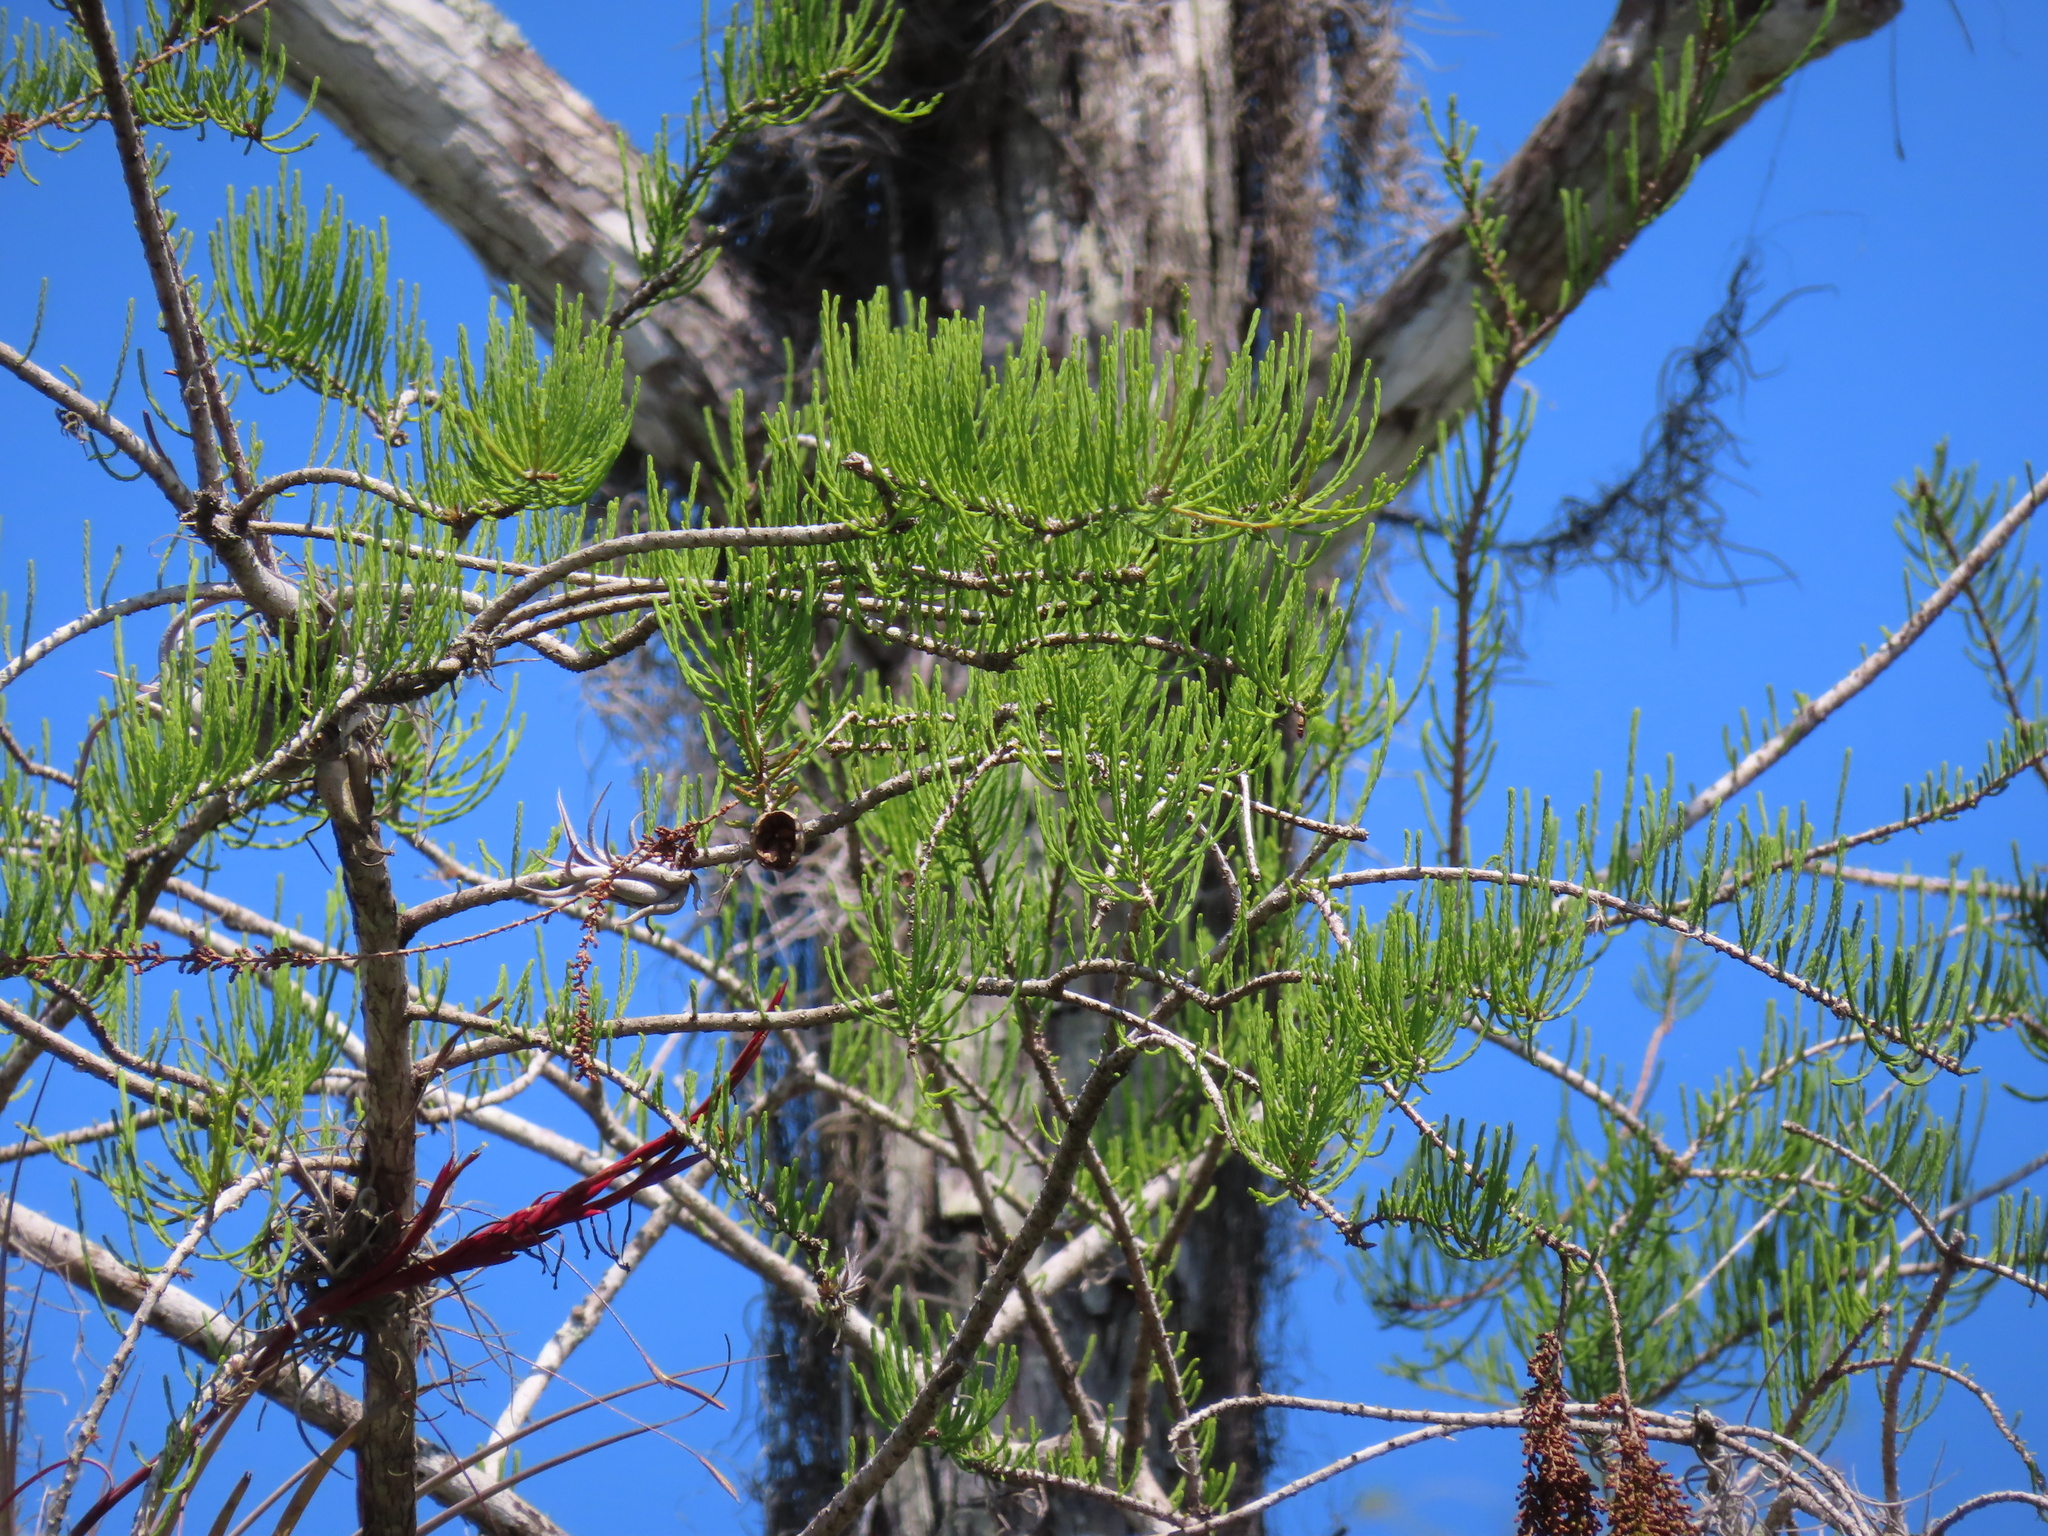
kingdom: Plantae
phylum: Tracheophyta
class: Pinopsida
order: Pinales
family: Cupressaceae
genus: Taxodium
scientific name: Taxodium distichum
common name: Bald cypress
